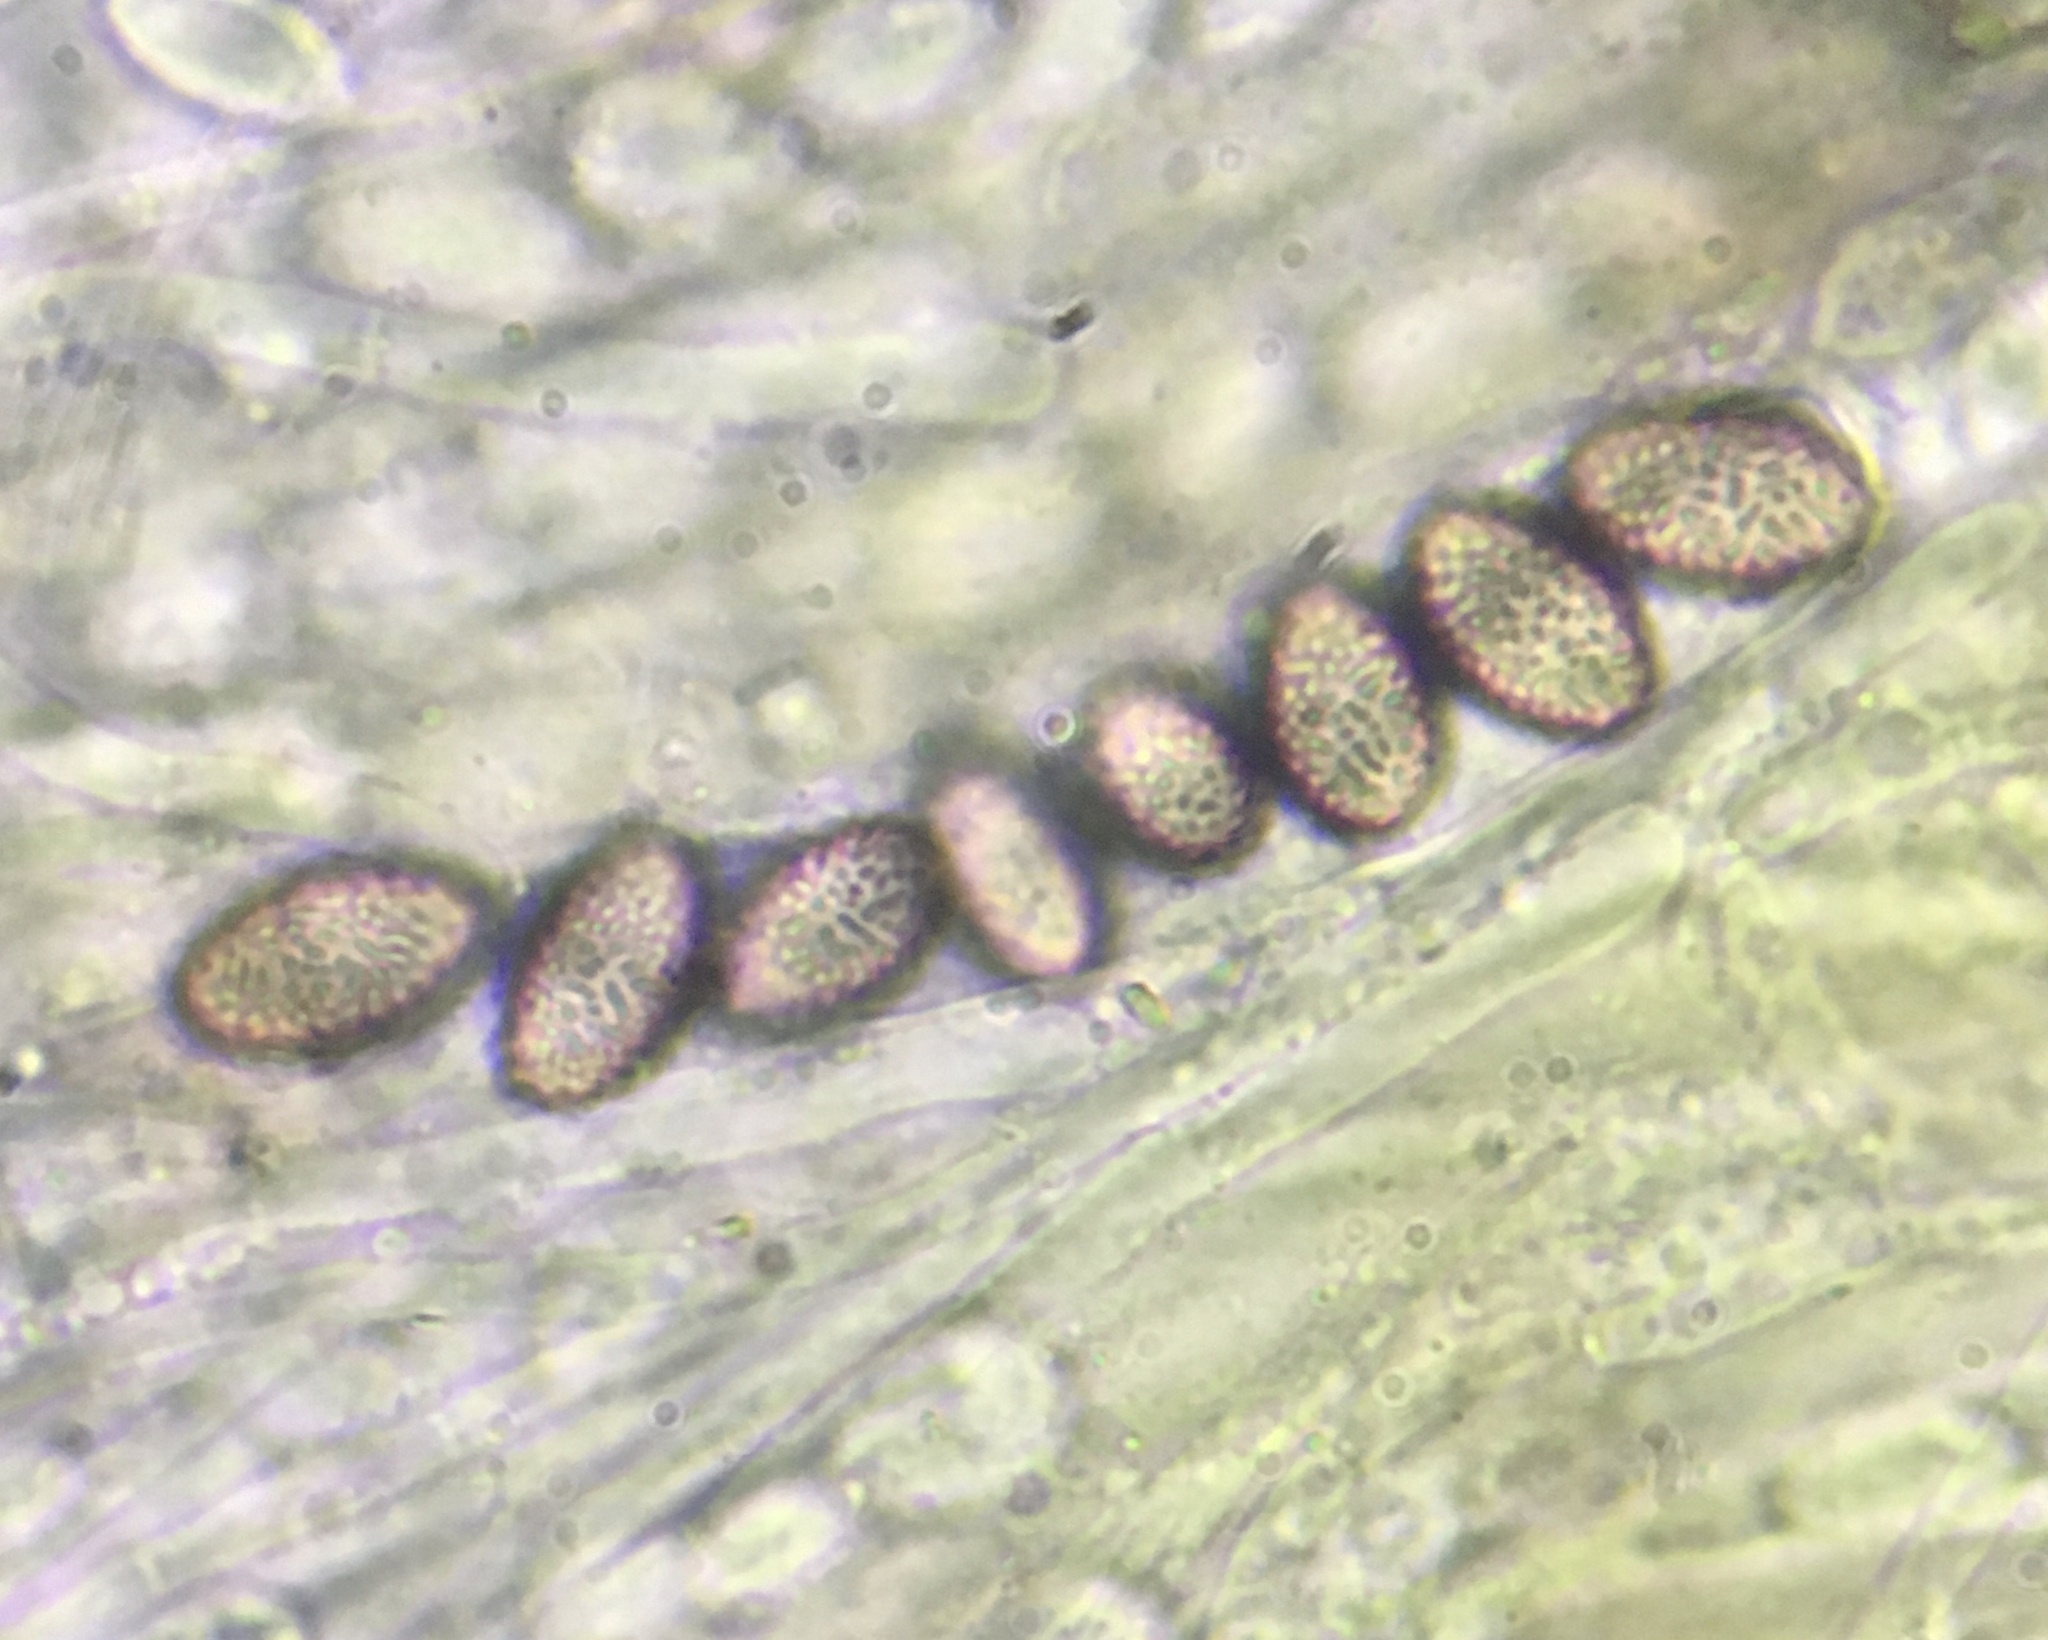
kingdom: Fungi
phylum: Ascomycota
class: Pezizomycetes
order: Pezizales
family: Ascobolaceae
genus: Ascobolus
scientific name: Ascobolus lineolatus
